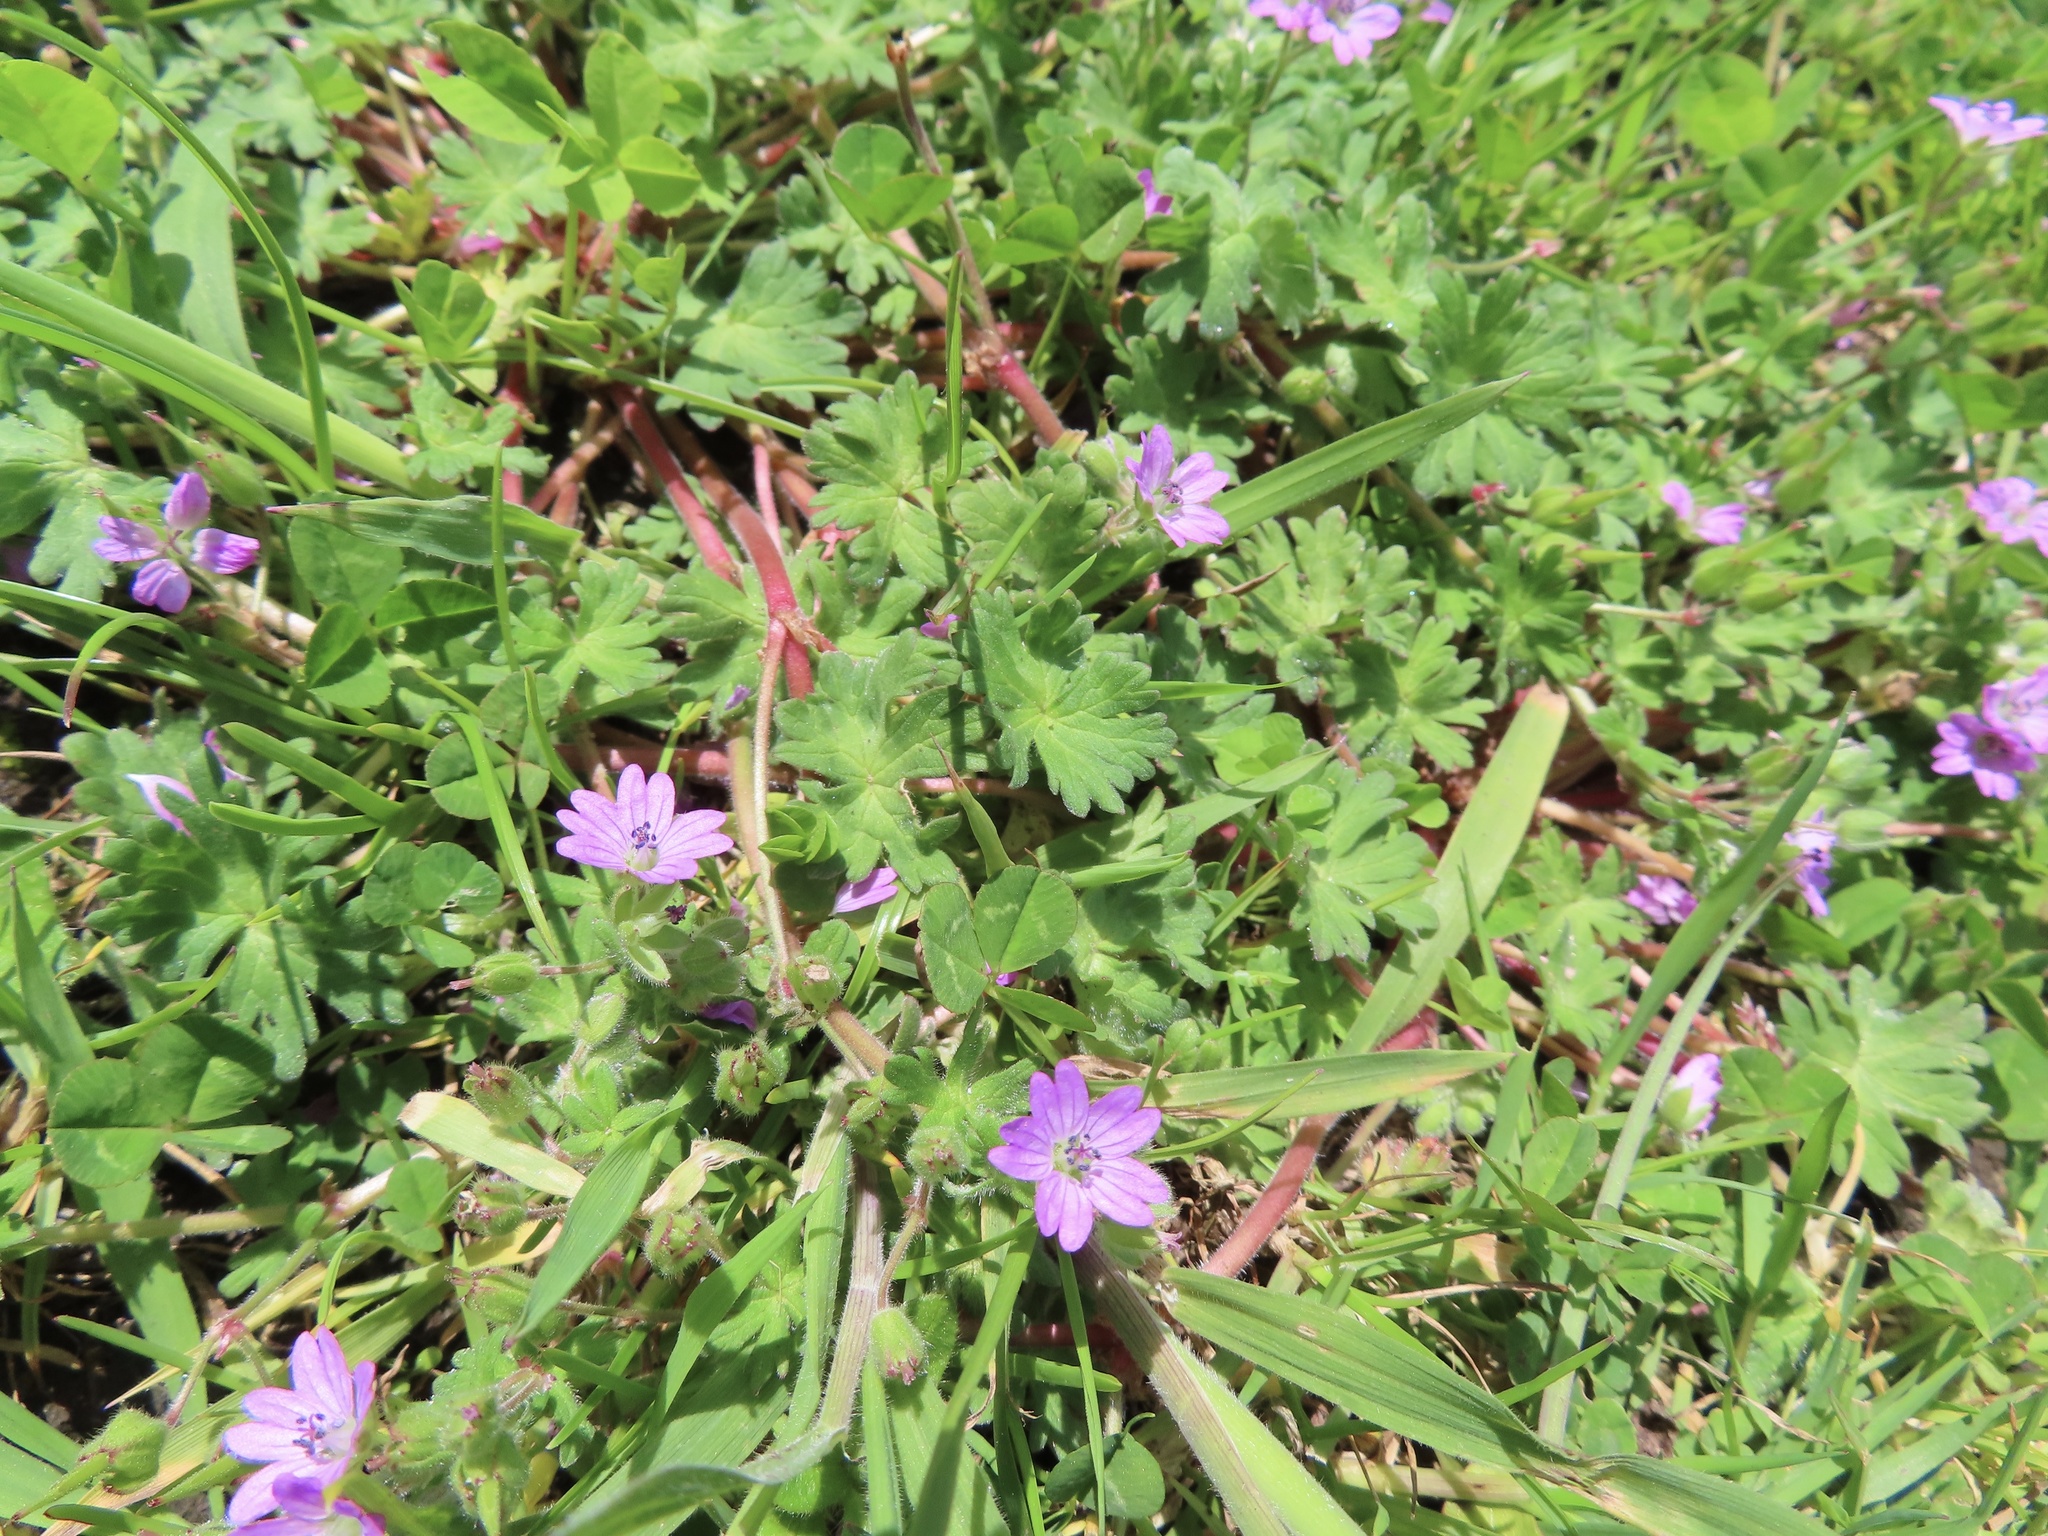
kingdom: Plantae
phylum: Tracheophyta
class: Magnoliopsida
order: Geraniales
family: Geraniaceae
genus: Geranium
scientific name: Geranium molle
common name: Dove's-foot crane's-bill
